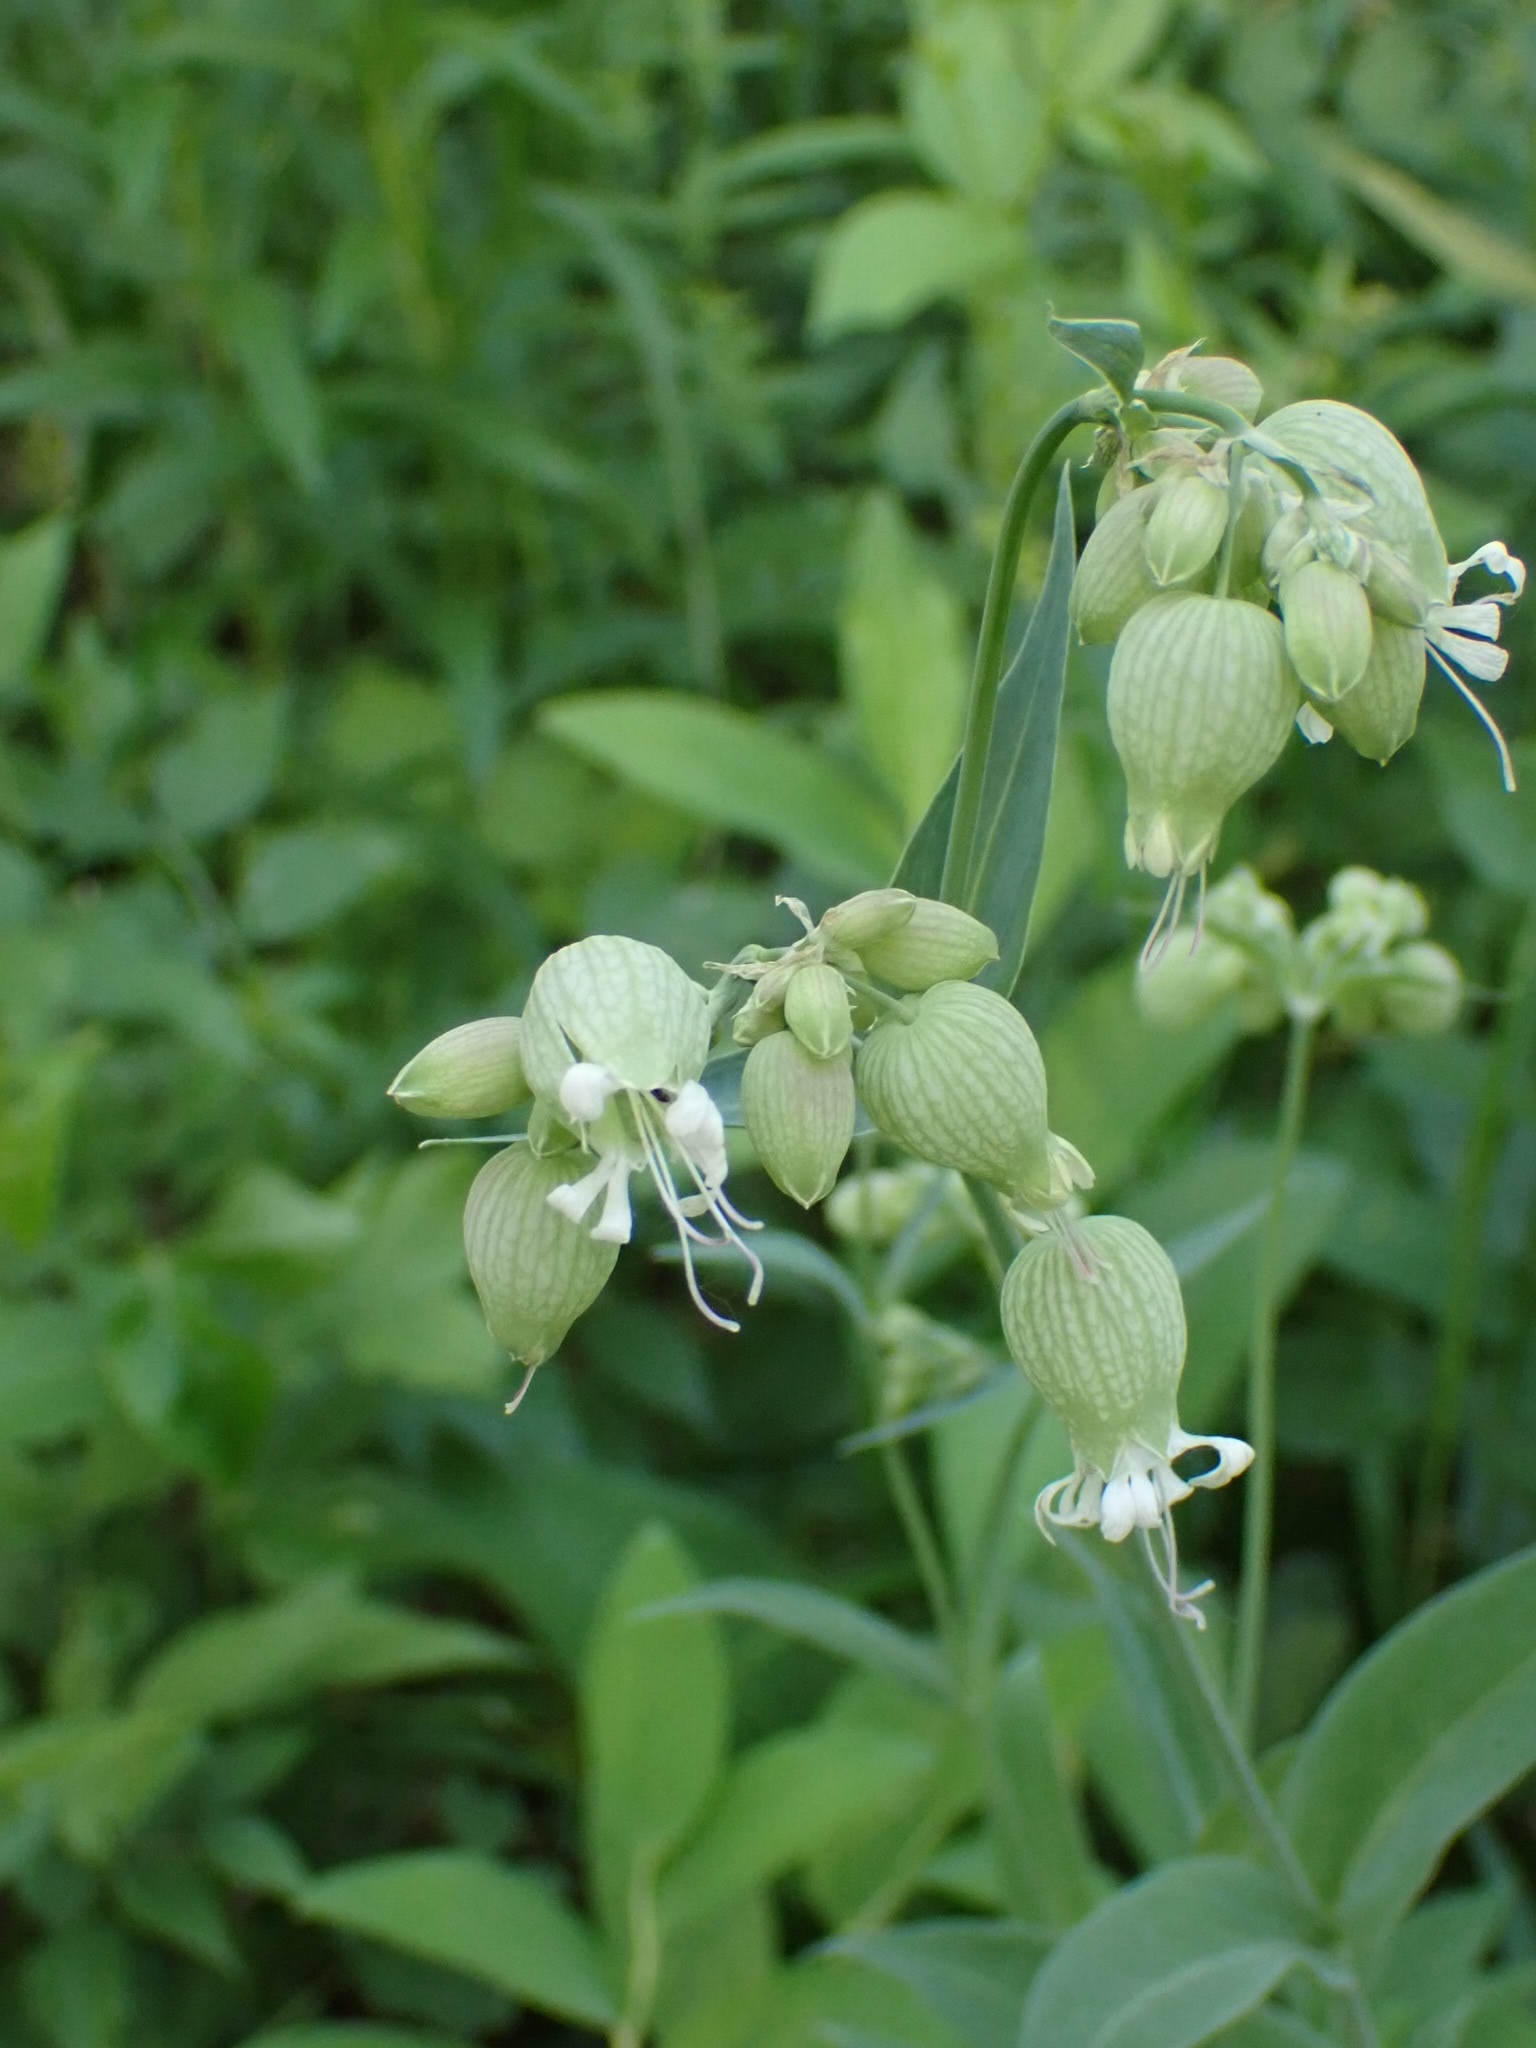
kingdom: Plantae
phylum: Tracheophyta
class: Magnoliopsida
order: Caryophyllales
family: Caryophyllaceae
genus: Silene
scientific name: Silene vulgaris
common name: Bladder campion
